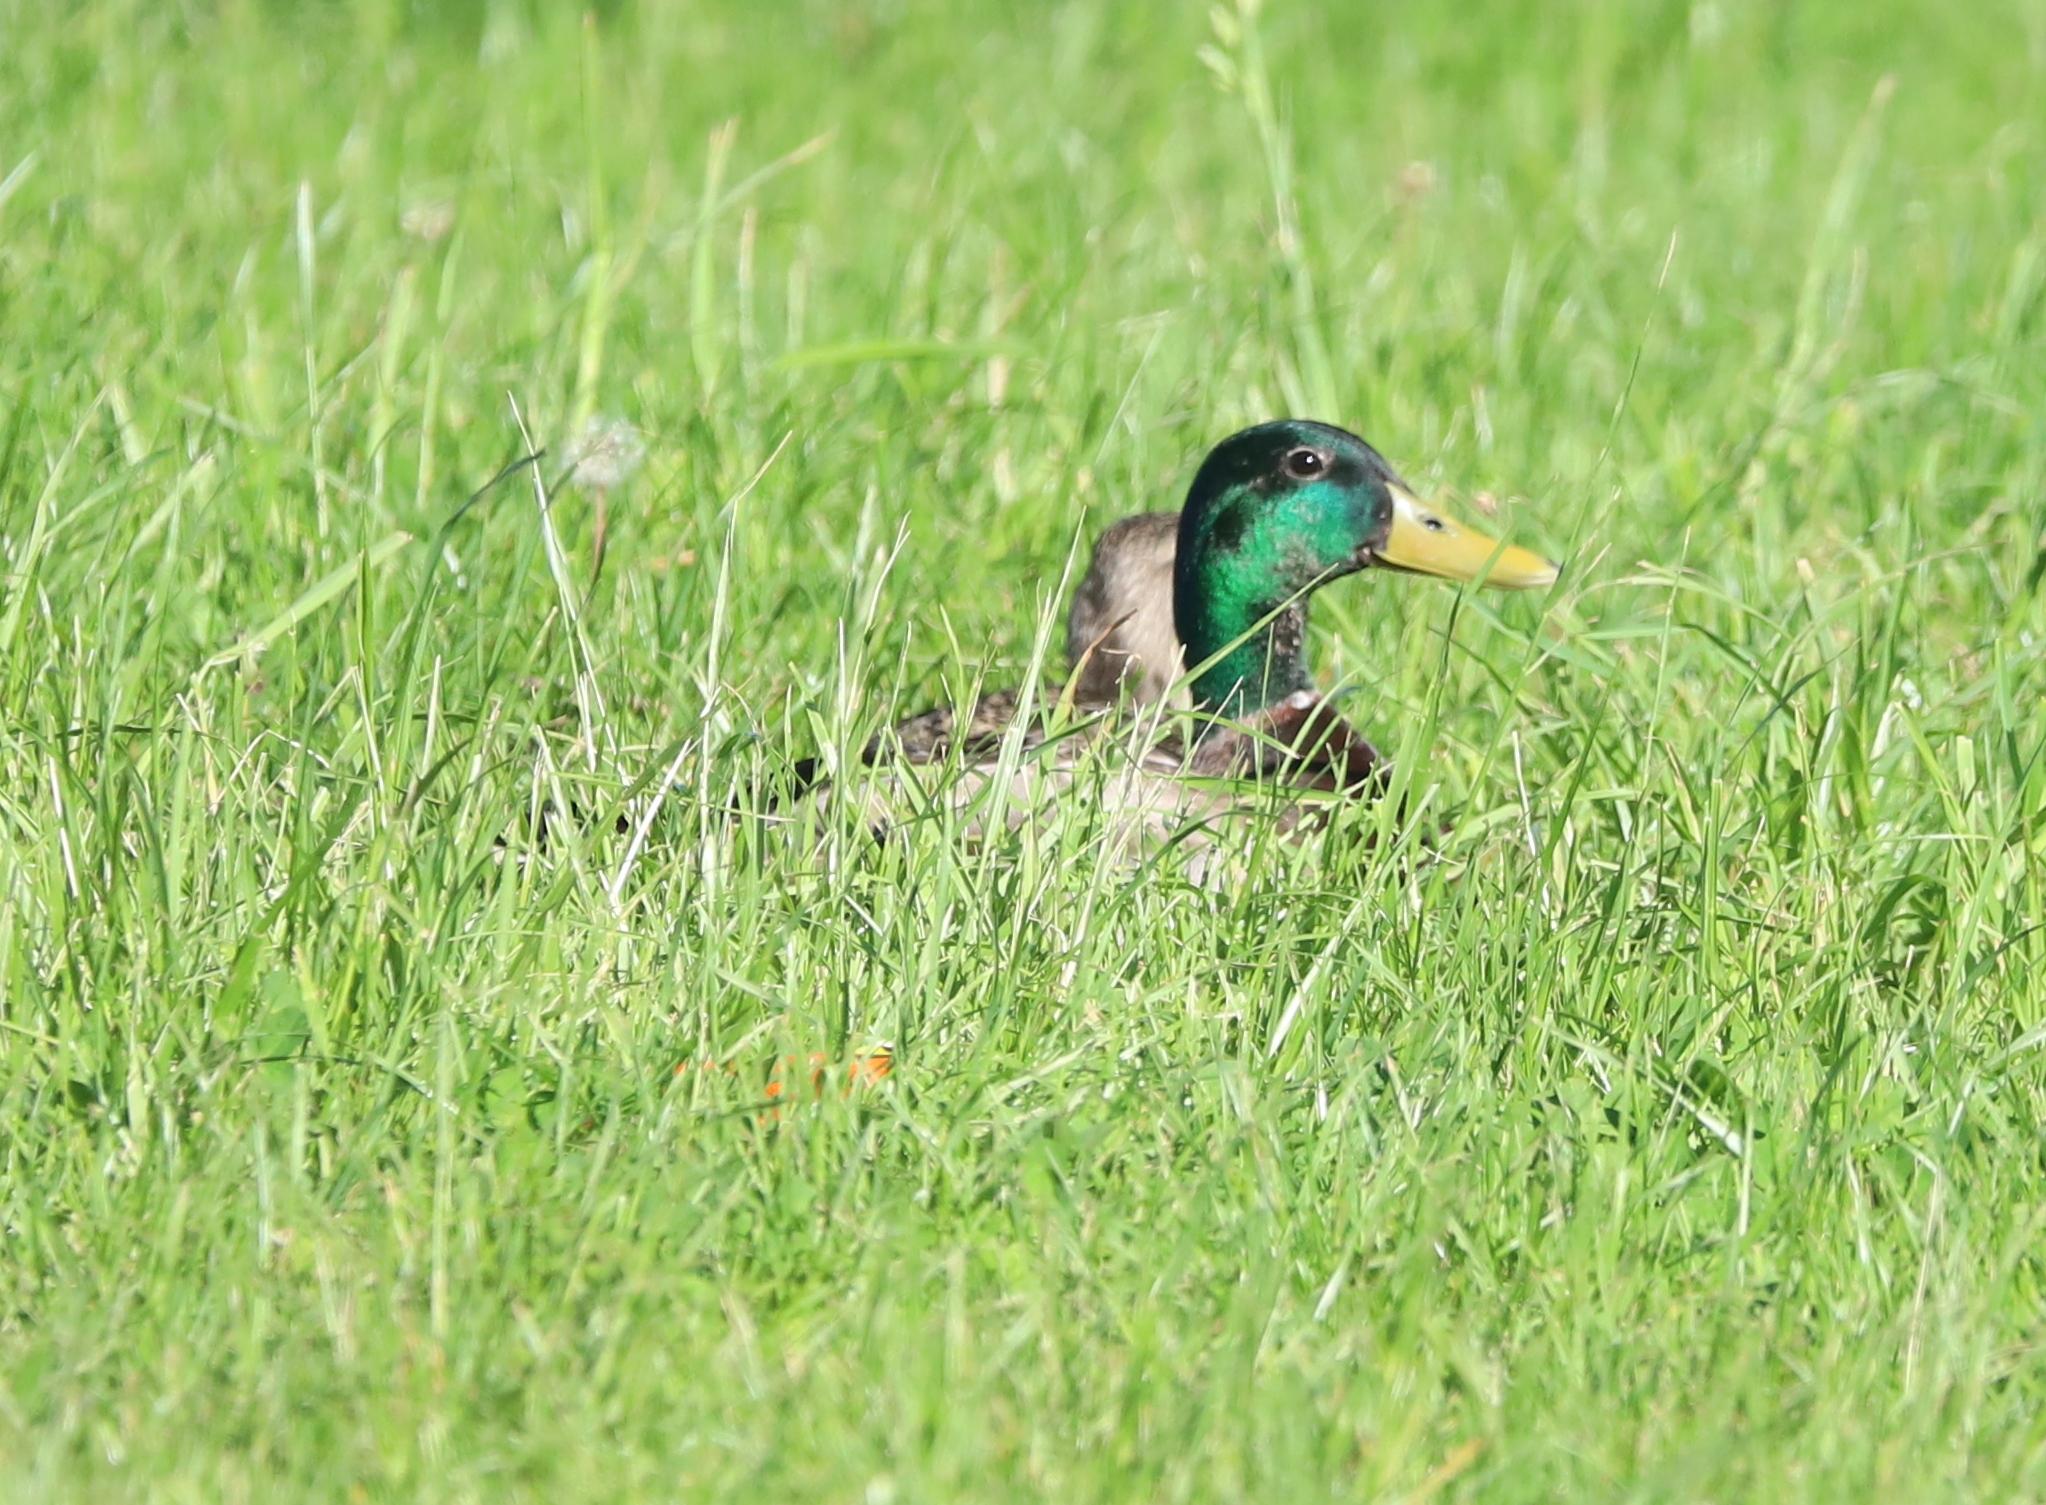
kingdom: Animalia
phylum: Chordata
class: Aves
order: Anseriformes
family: Anatidae
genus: Anas
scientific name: Anas platyrhynchos
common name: Mallard
